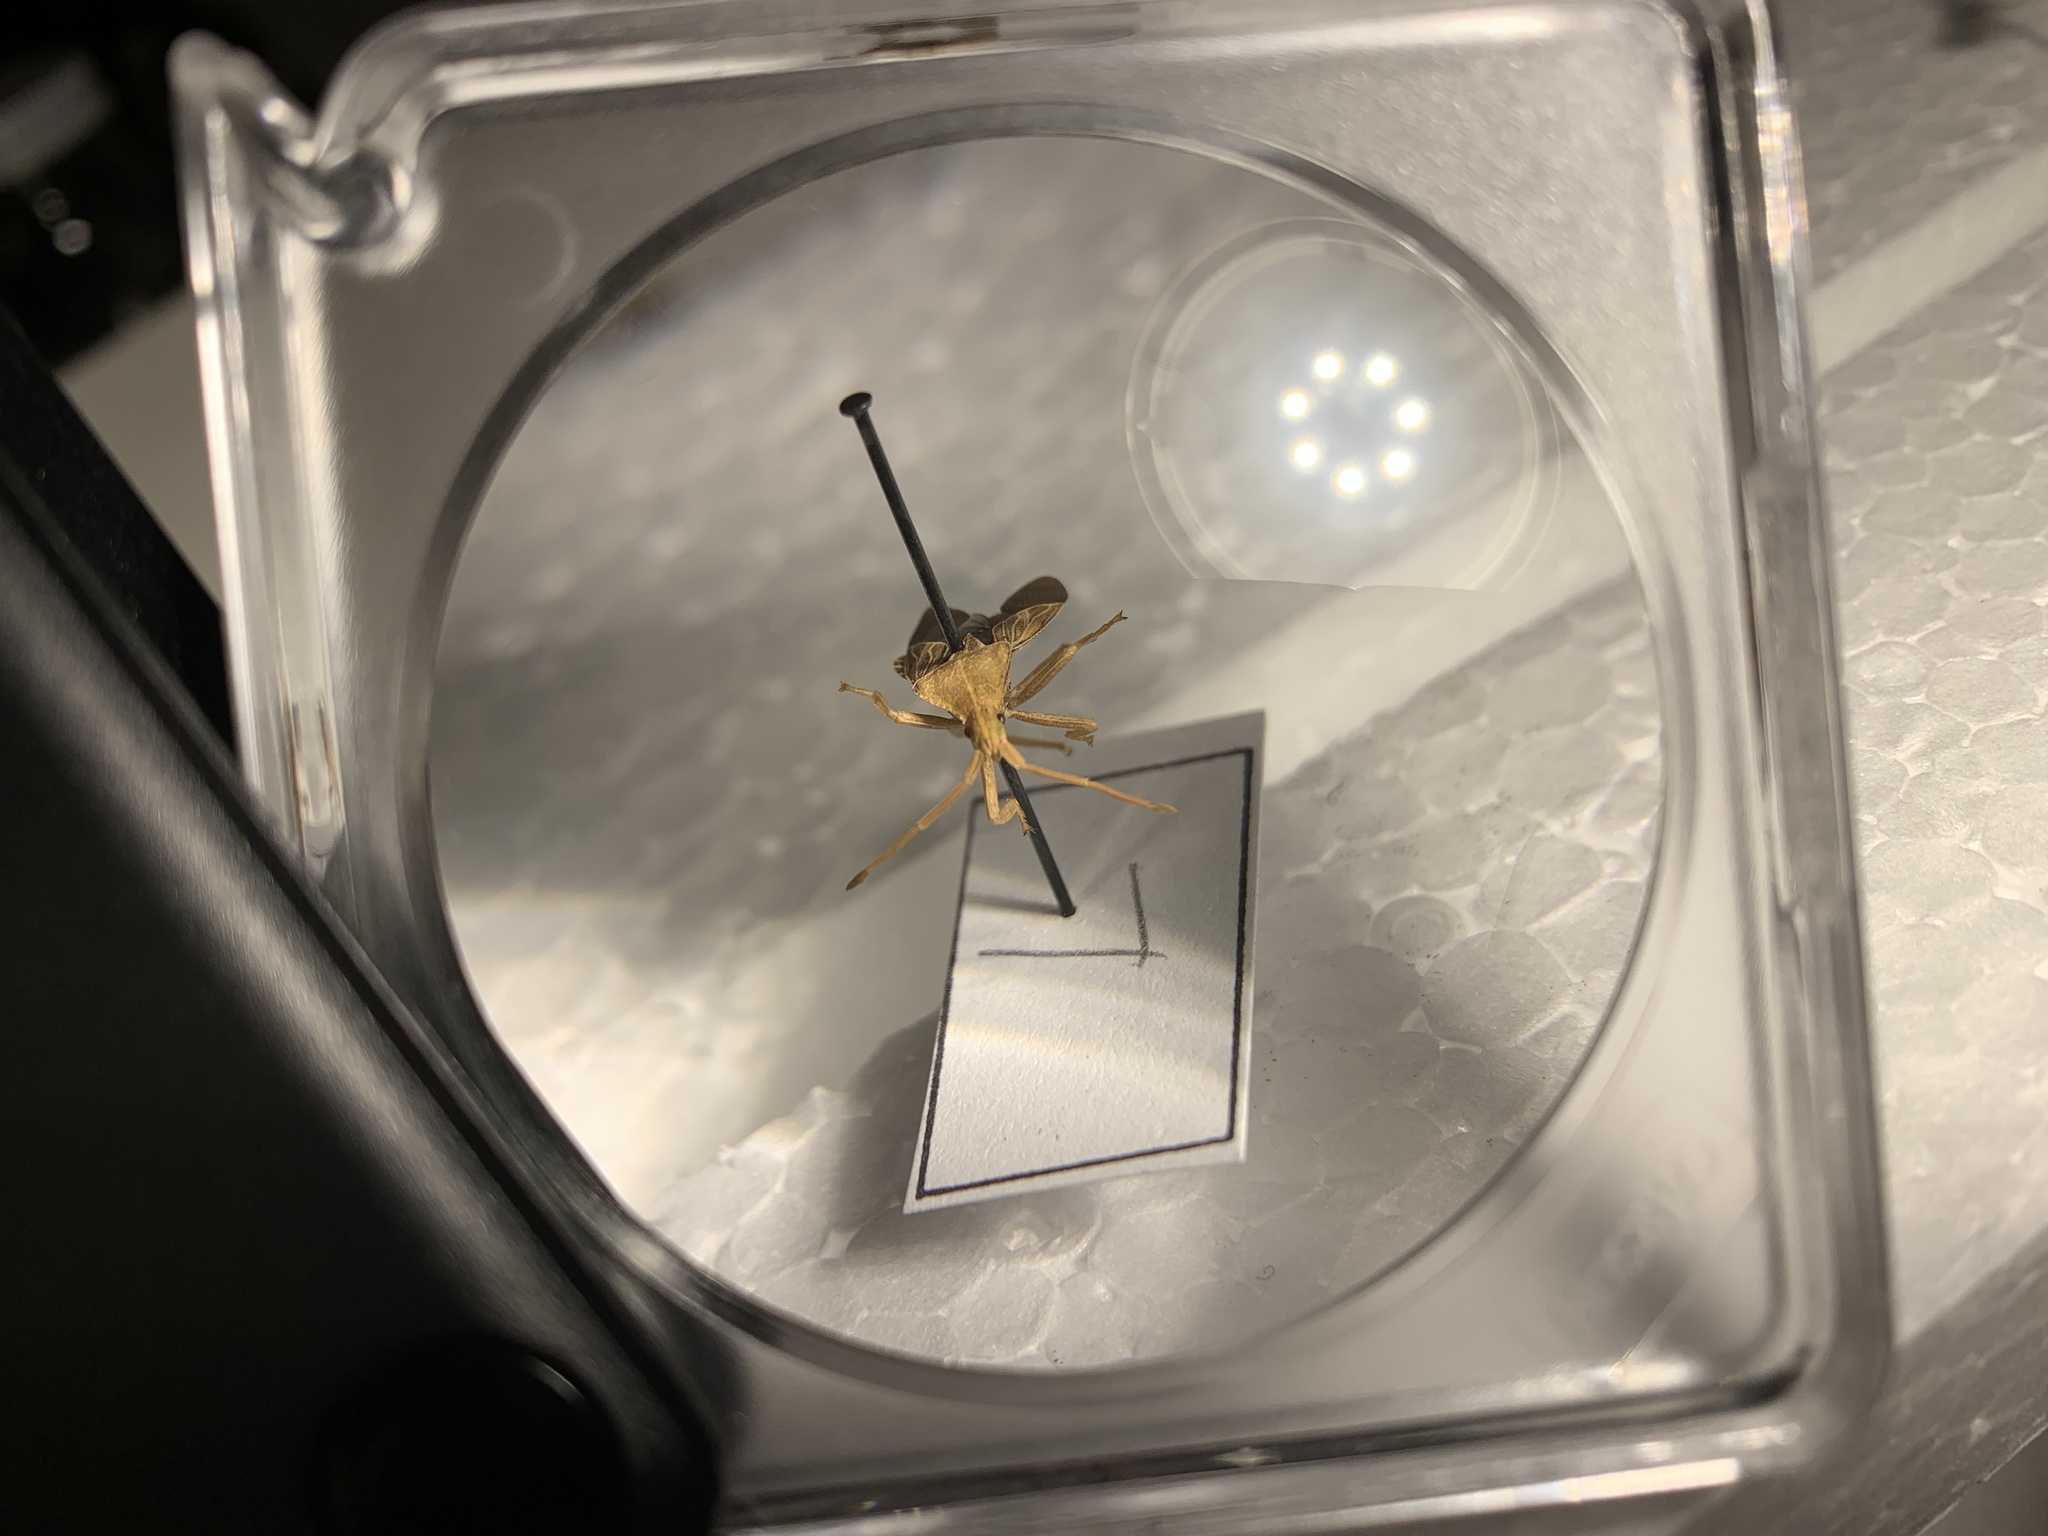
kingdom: Animalia
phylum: Arthropoda
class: Insecta
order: Hemiptera
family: Coreidae
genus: Chelinidea
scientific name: Chelinidea tabulata
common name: Prickly pear bug
